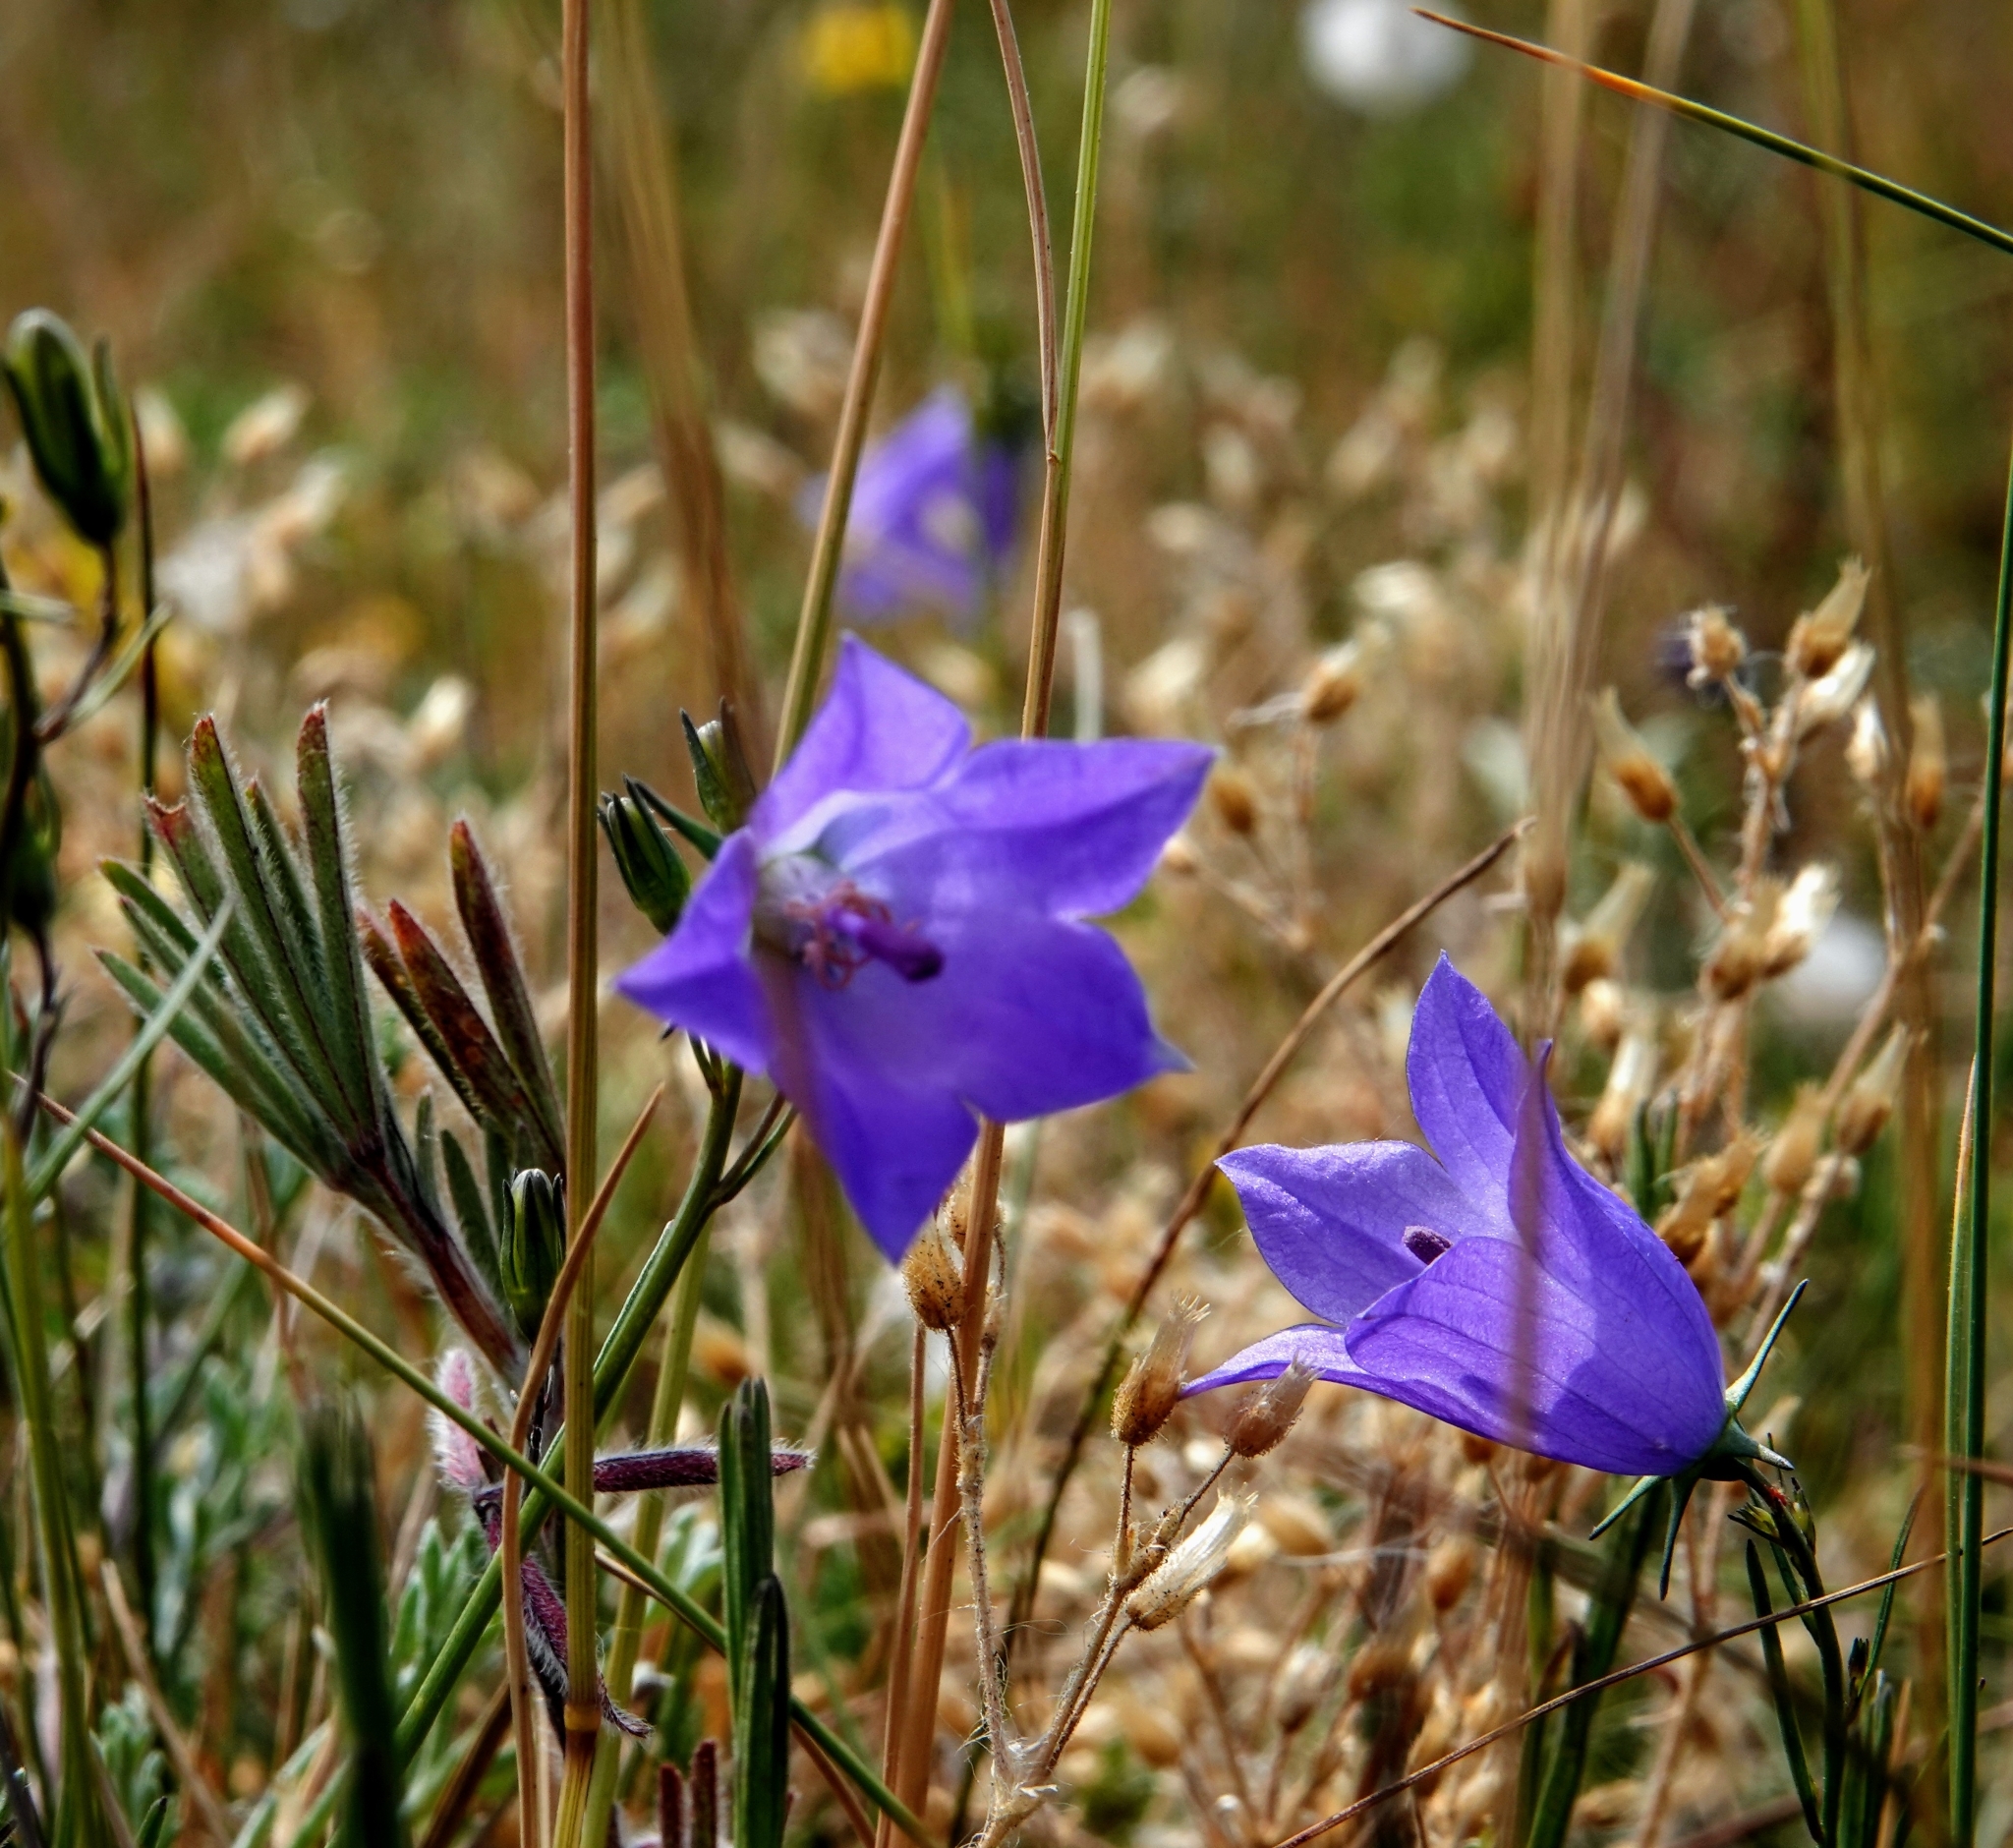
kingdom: Plantae
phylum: Tracheophyta
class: Magnoliopsida
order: Asterales
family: Campanulaceae
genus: Campanula
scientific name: Campanula rotundifolia
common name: Harebell
